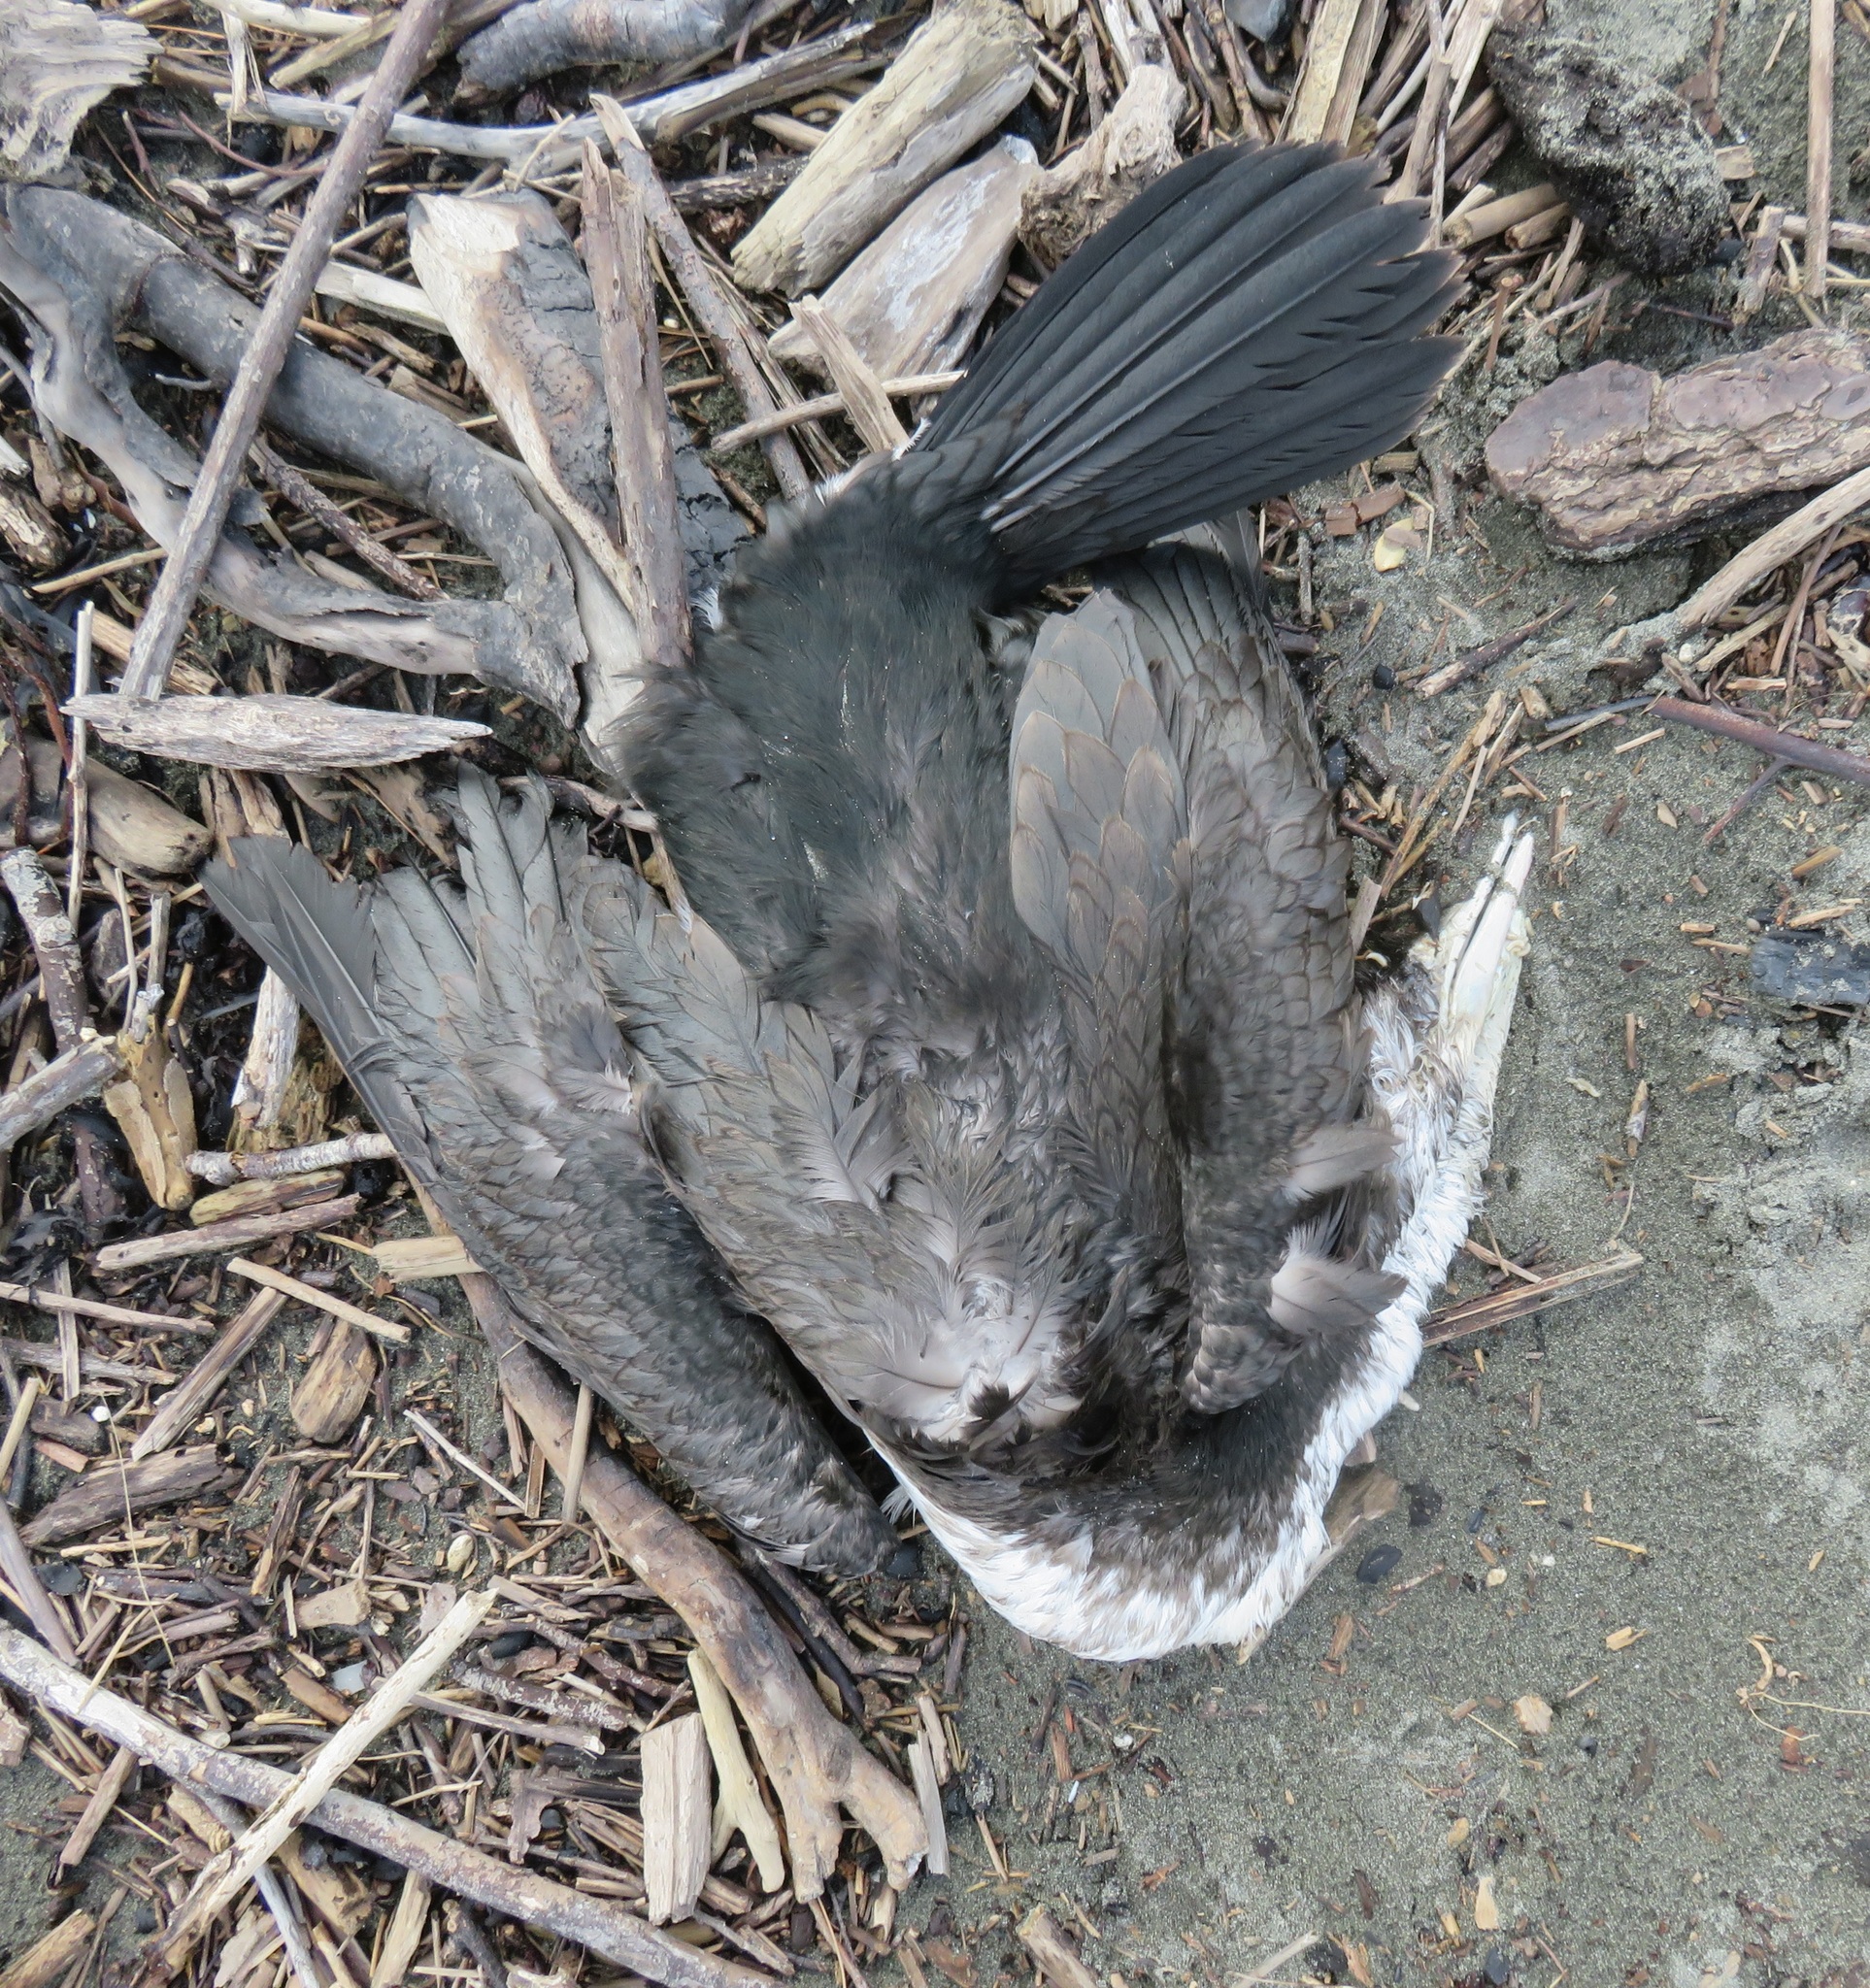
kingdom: Animalia
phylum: Chordata
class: Aves
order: Suliformes
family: Phalacrocoracidae
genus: Phalacrocorax
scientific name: Phalacrocorax varius
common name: Pied cormorant
